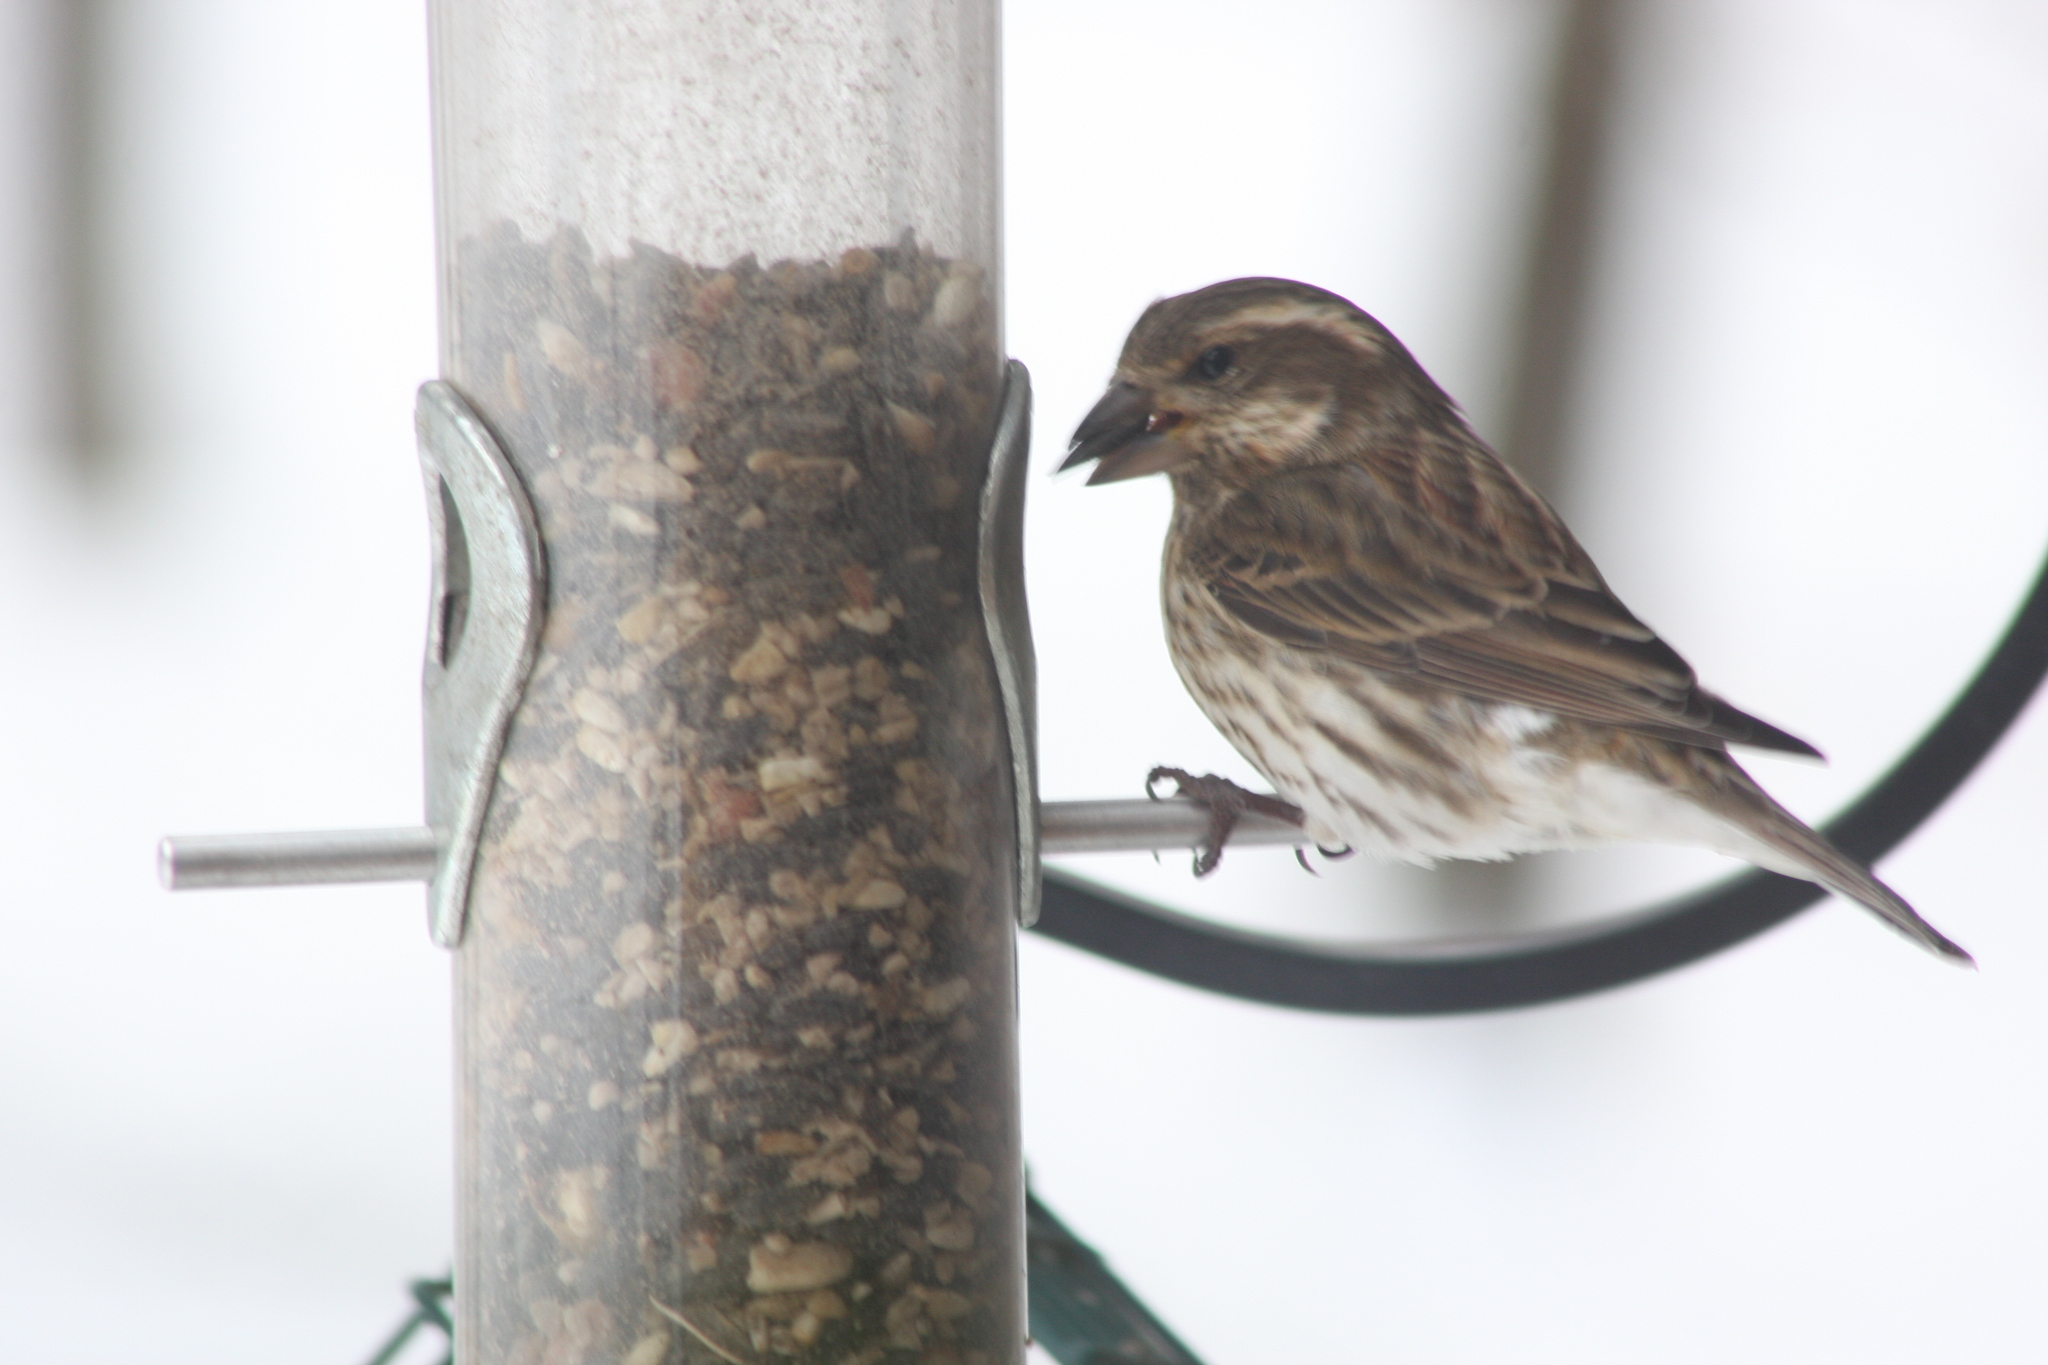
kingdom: Animalia
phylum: Chordata
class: Aves
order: Passeriformes
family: Fringillidae
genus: Haemorhous
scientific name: Haemorhous purpureus
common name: Purple finch
